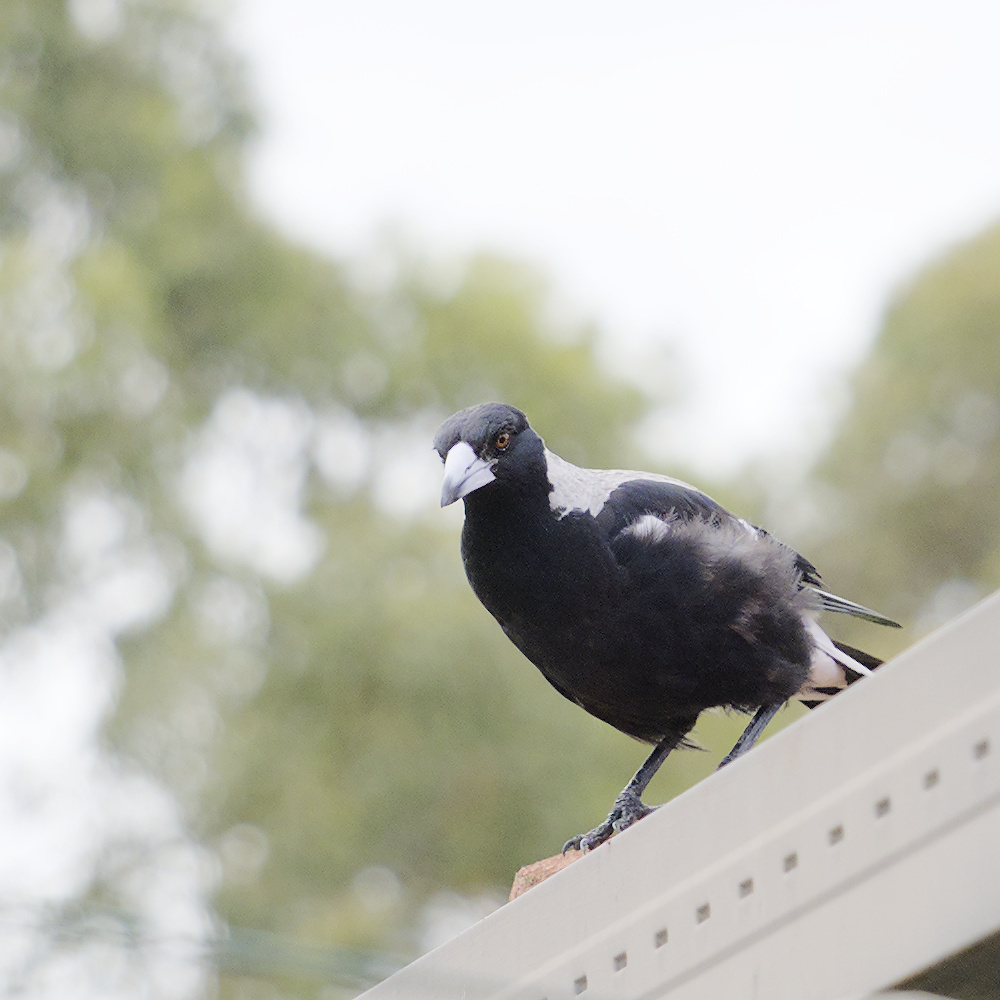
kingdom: Animalia
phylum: Chordata
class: Aves
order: Passeriformes
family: Cracticidae
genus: Gymnorhina
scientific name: Gymnorhina tibicen
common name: Australian magpie
